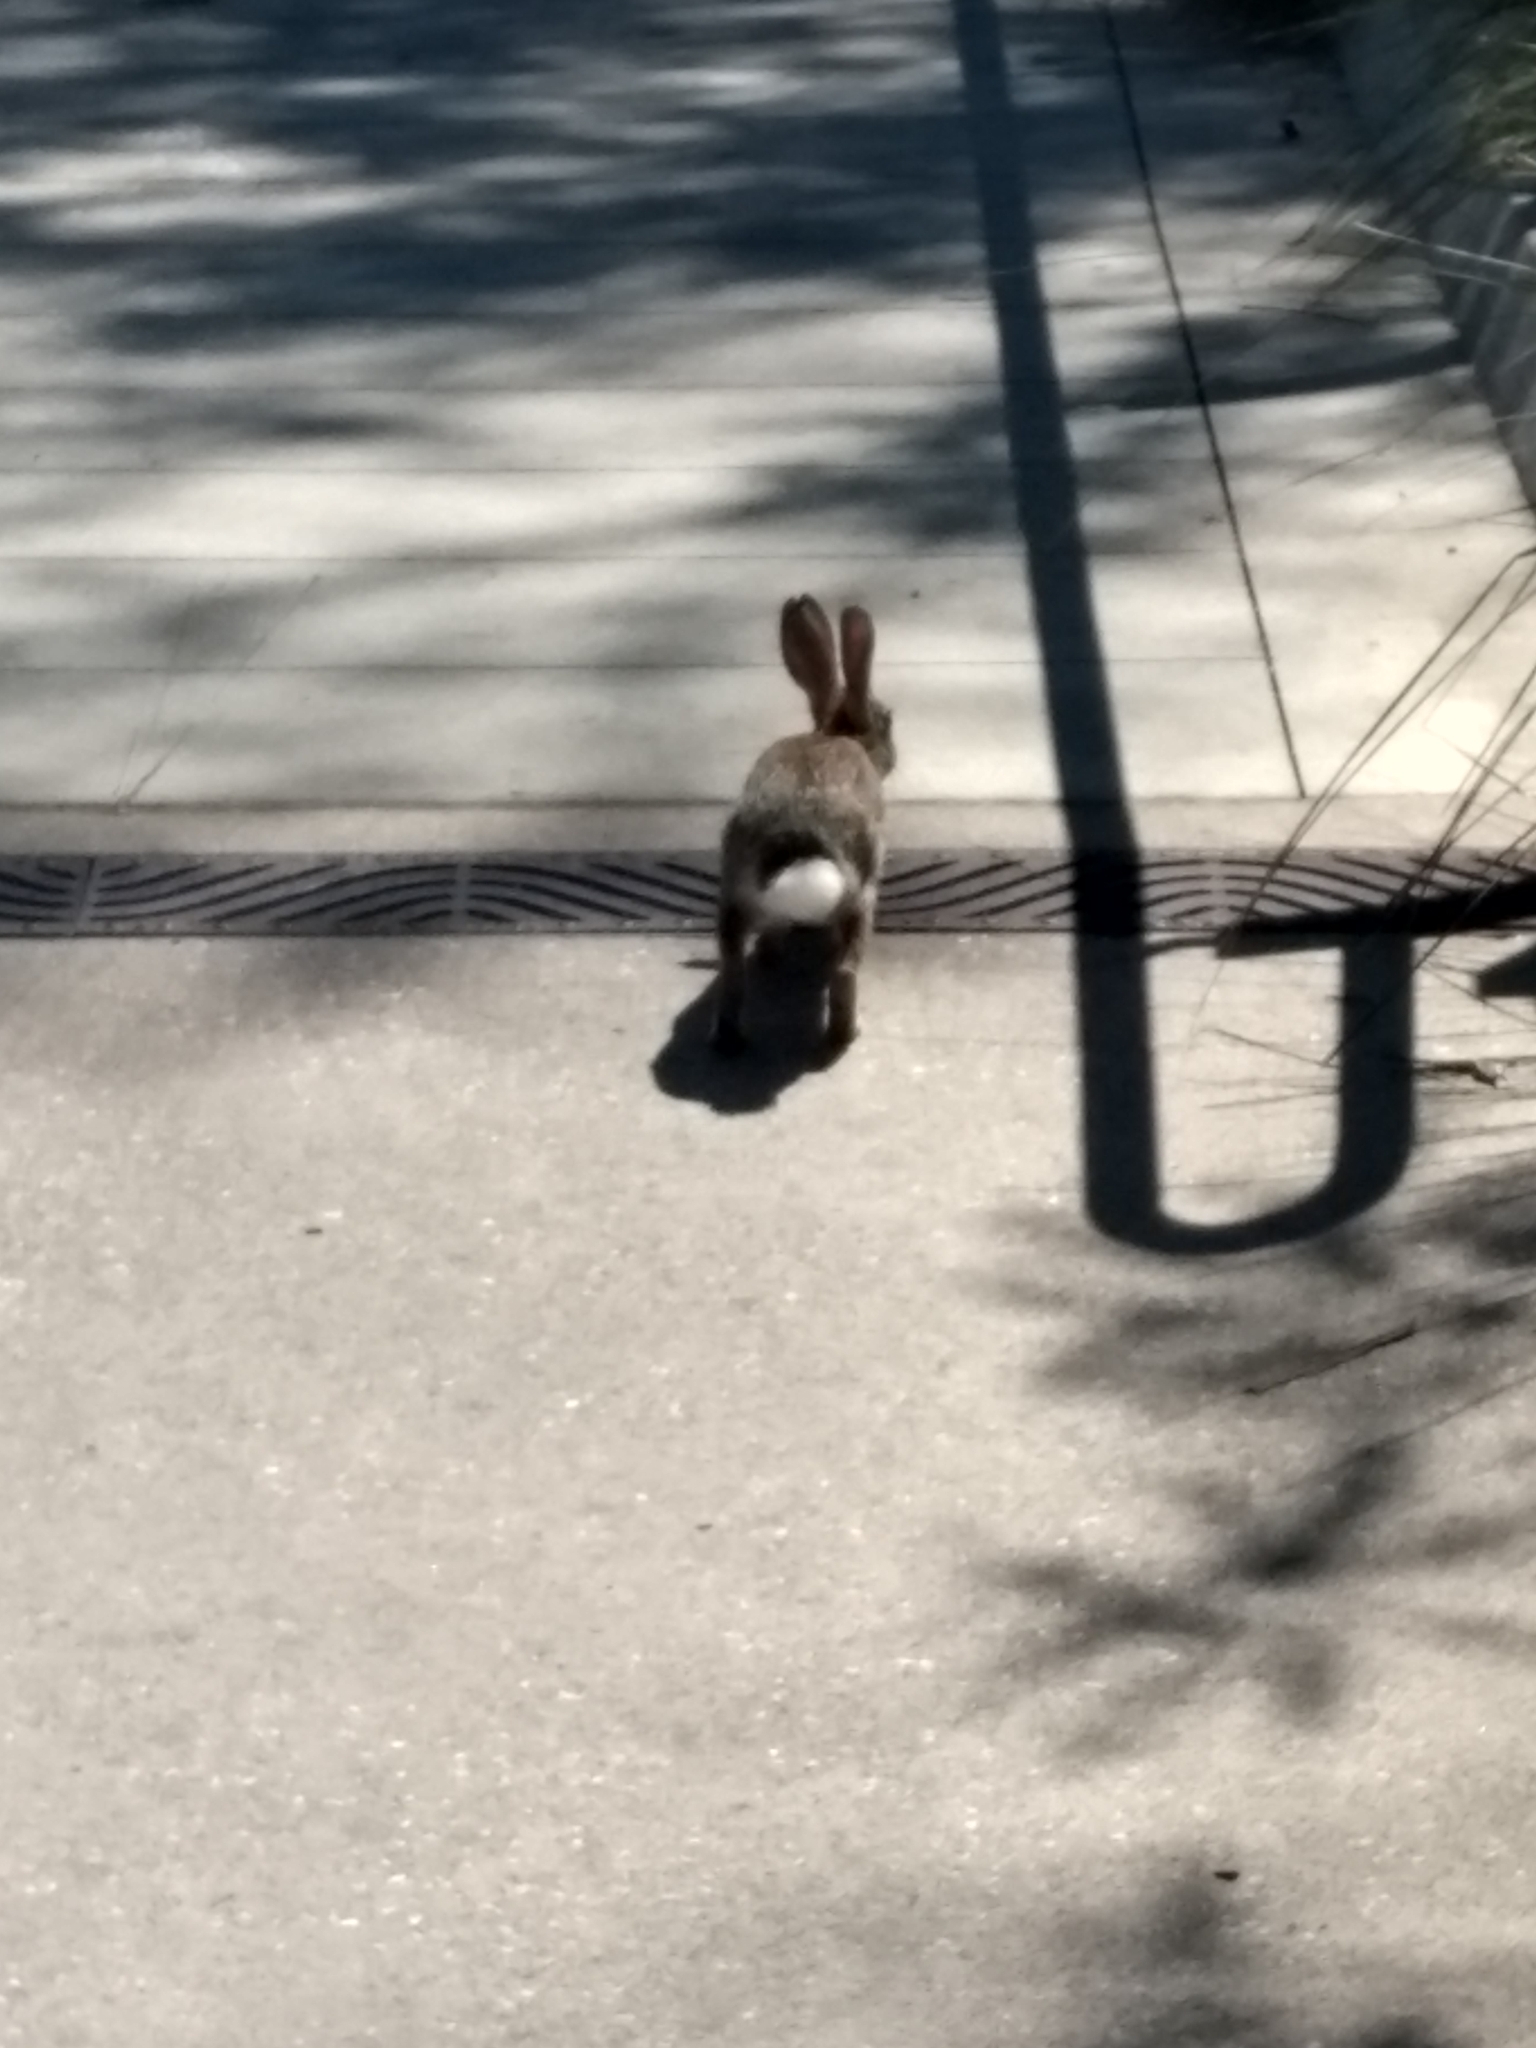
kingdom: Animalia
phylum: Chordata
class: Mammalia
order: Lagomorpha
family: Leporidae
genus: Sylvilagus
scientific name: Sylvilagus audubonii
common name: Desert cottontail
